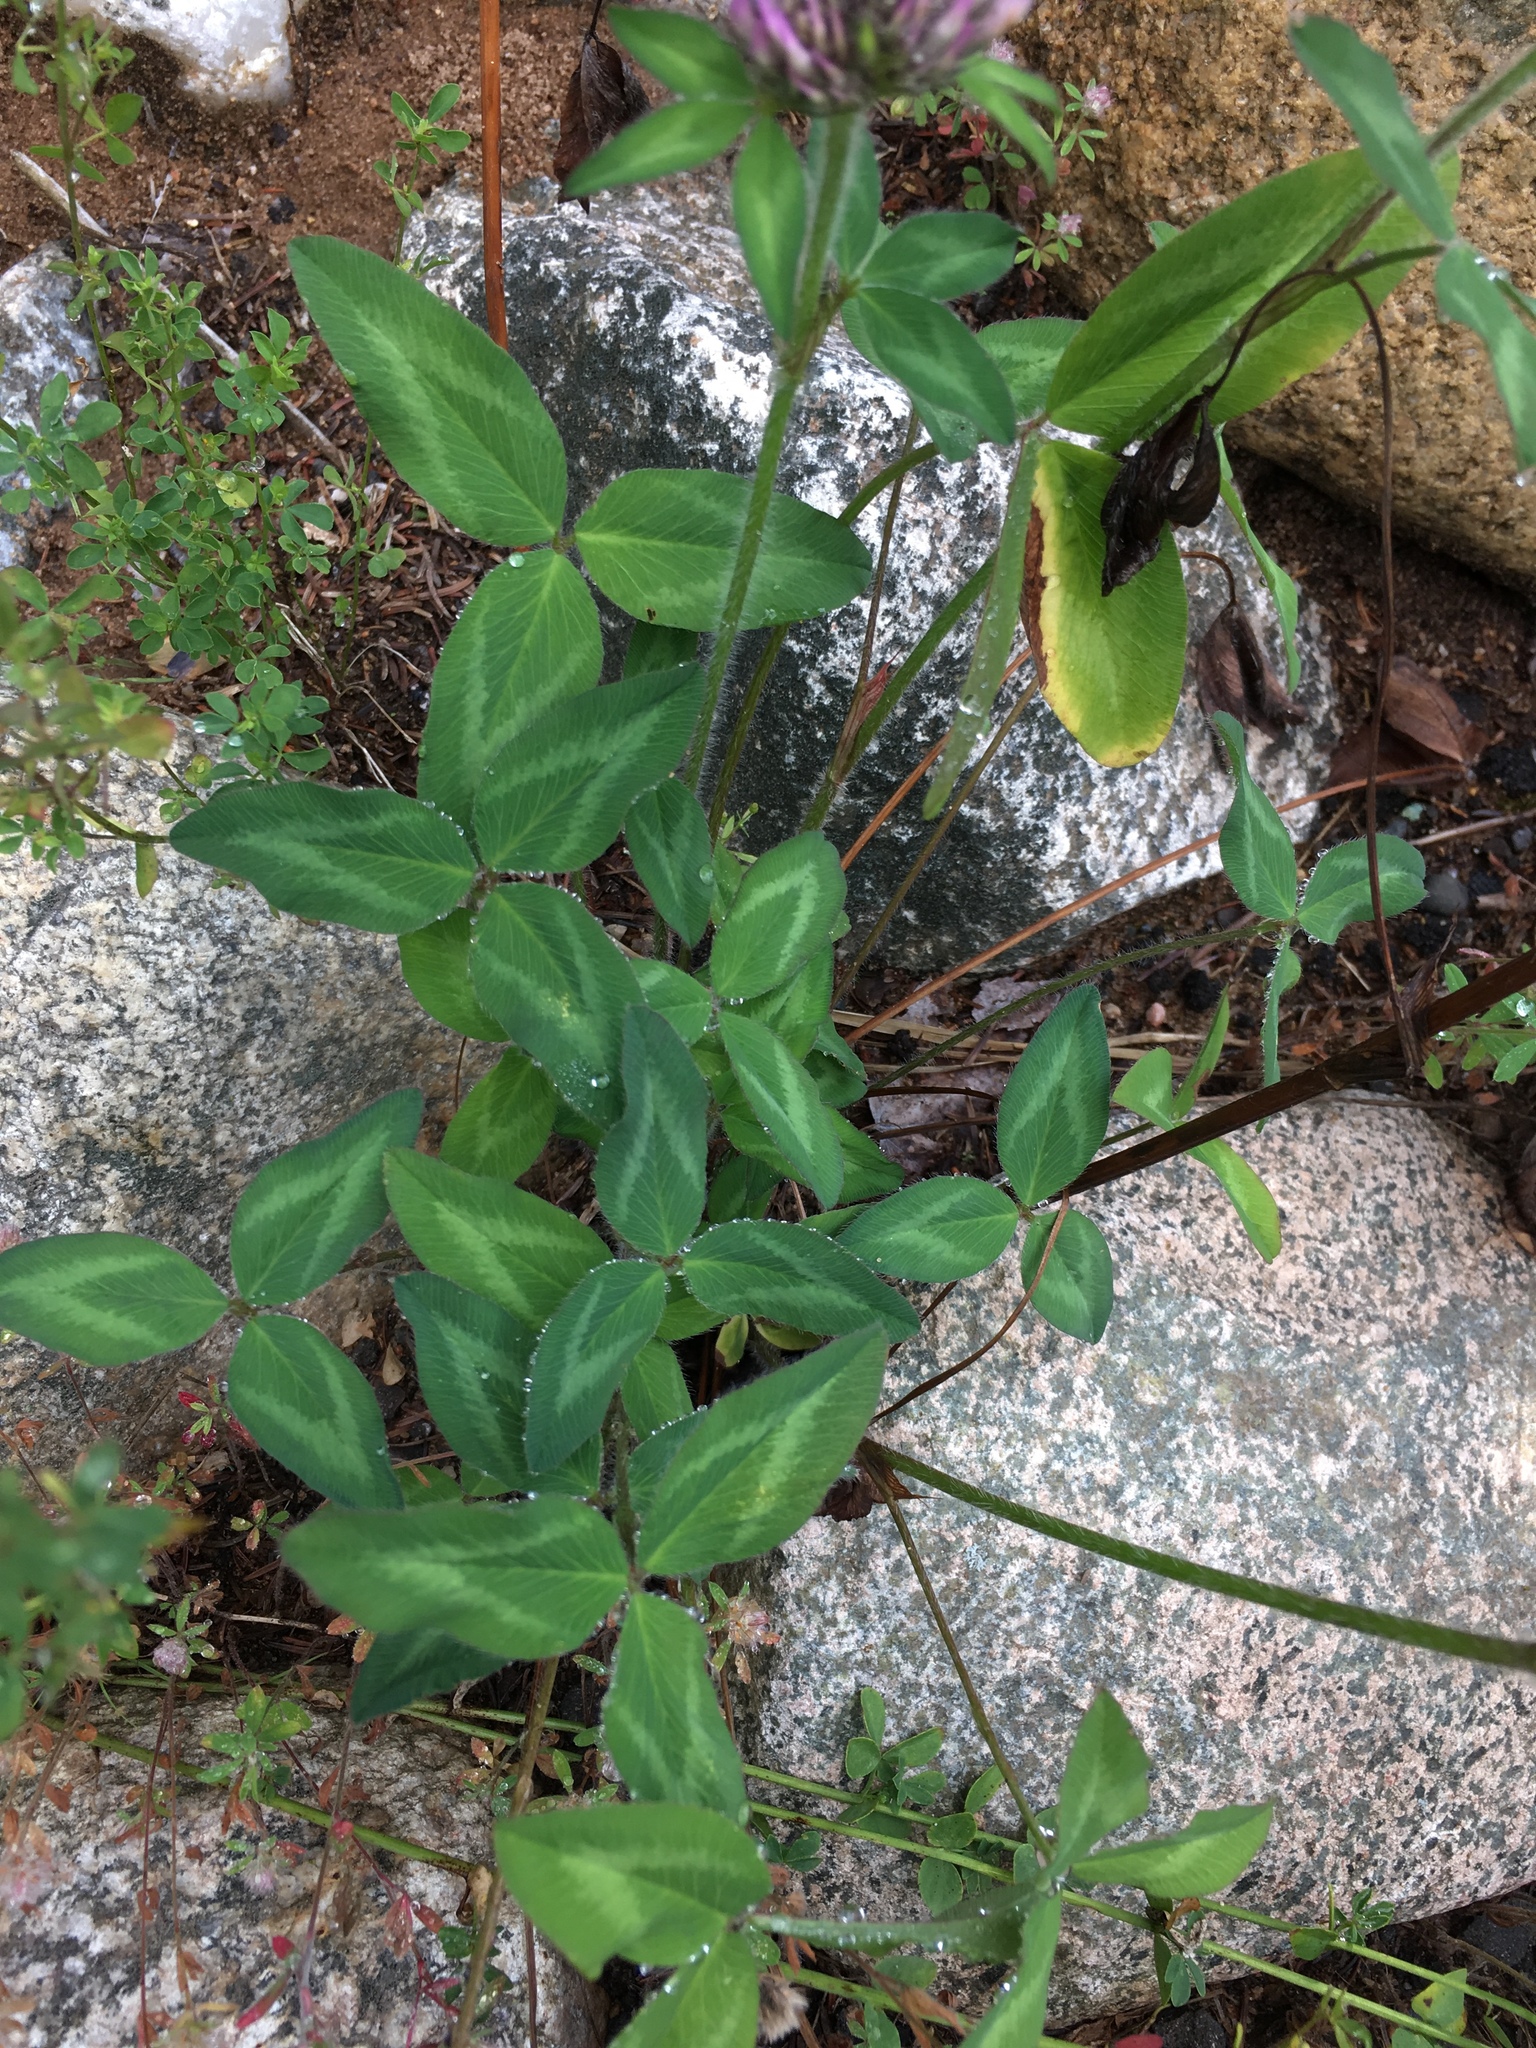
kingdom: Plantae
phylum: Tracheophyta
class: Magnoliopsida
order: Fabales
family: Fabaceae
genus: Trifolium
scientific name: Trifolium pratense
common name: Red clover
